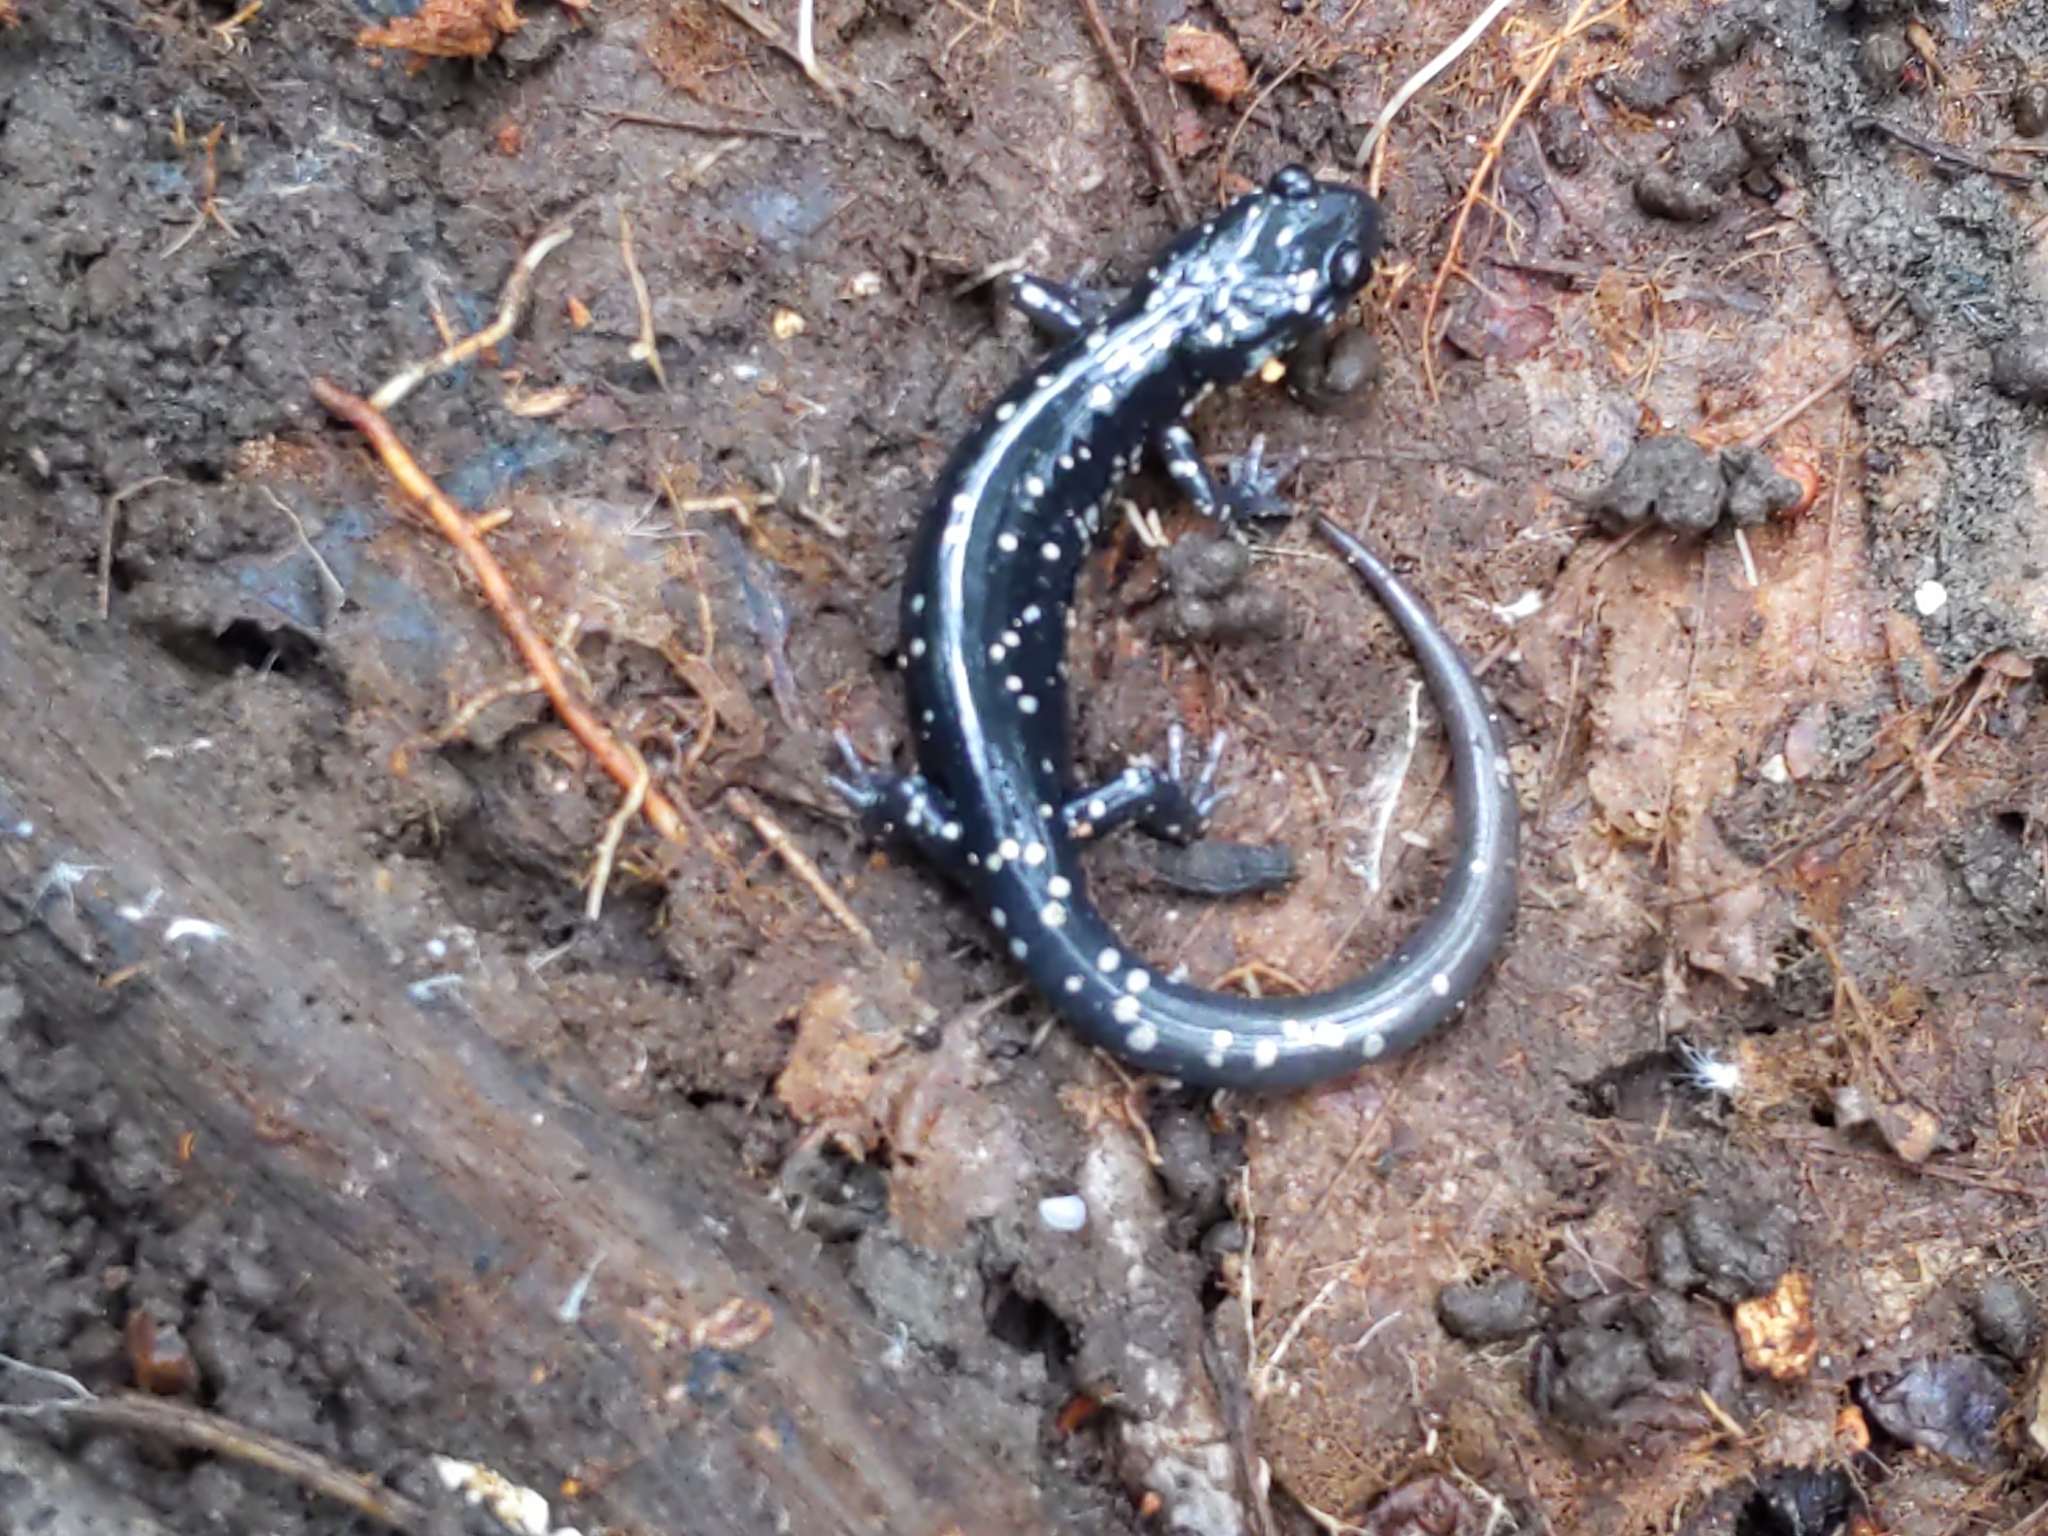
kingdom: Animalia
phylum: Chordata
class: Amphibia
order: Caudata
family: Plethodontidae
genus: Plethodon
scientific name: Plethodon glutinosus
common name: Northern slimy salamander
